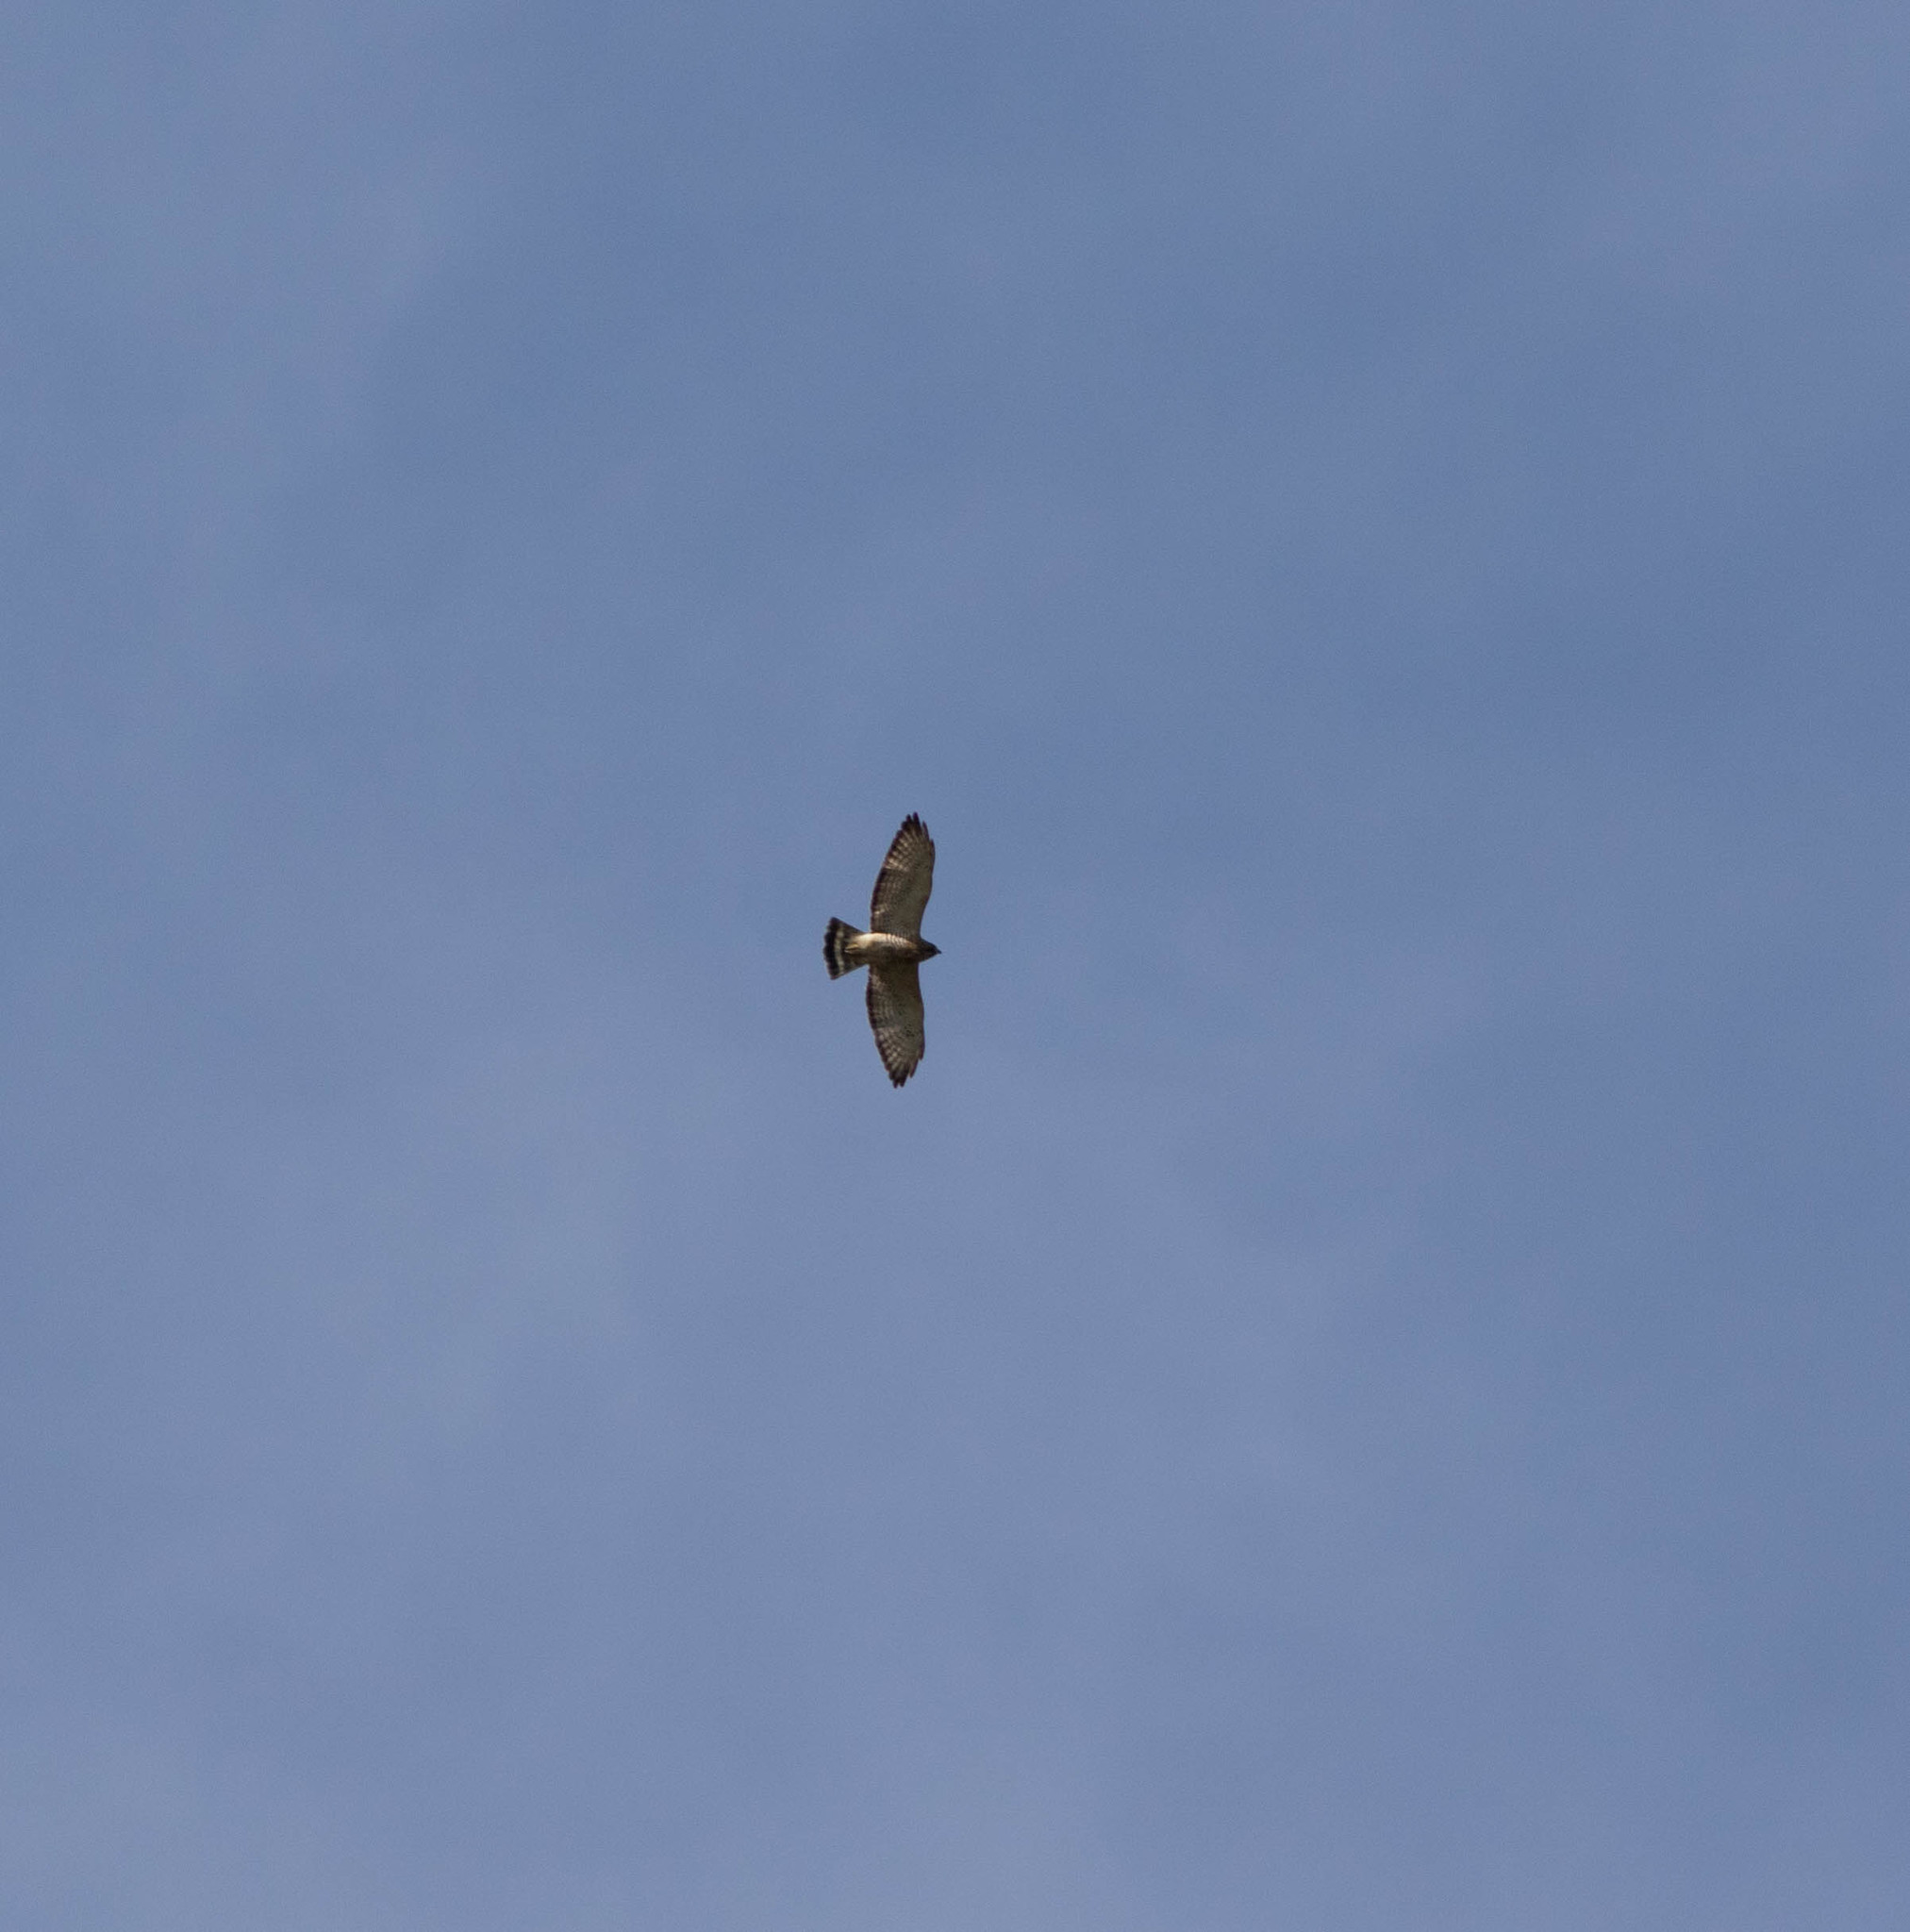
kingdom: Animalia
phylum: Chordata
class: Aves
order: Accipitriformes
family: Accipitridae
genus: Buteo
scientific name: Buteo platypterus
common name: Broad-winged hawk
